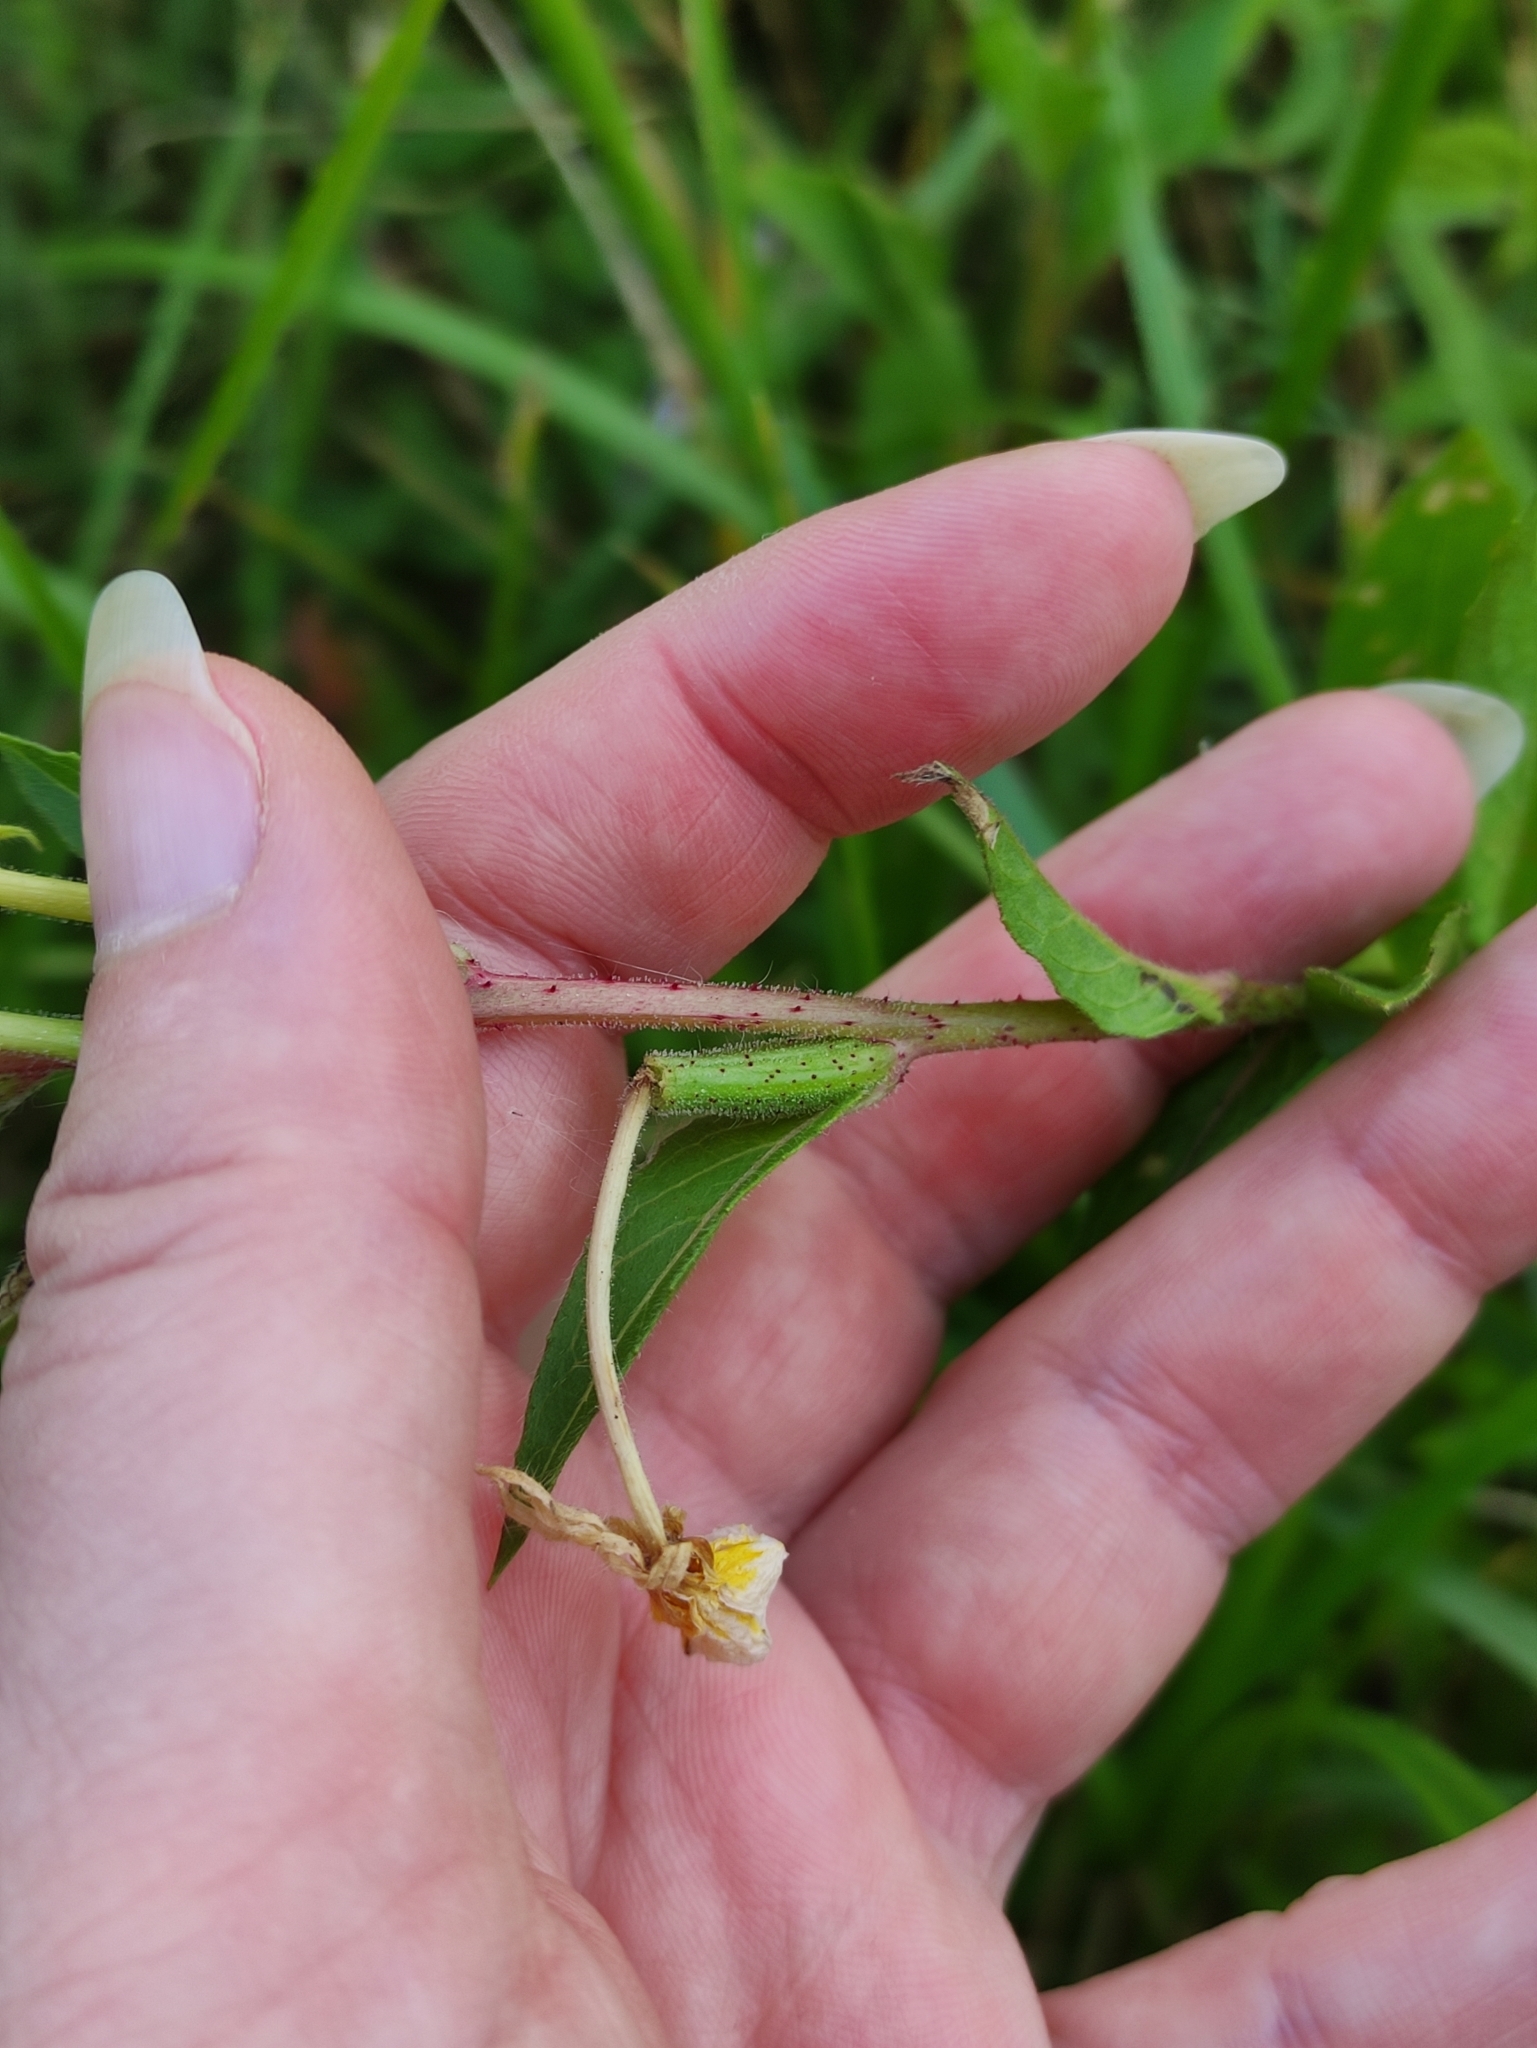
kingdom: Plantae
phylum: Tracheophyta
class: Magnoliopsida
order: Myrtales
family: Onagraceae
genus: Oenothera
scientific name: Oenothera rubricaulis
